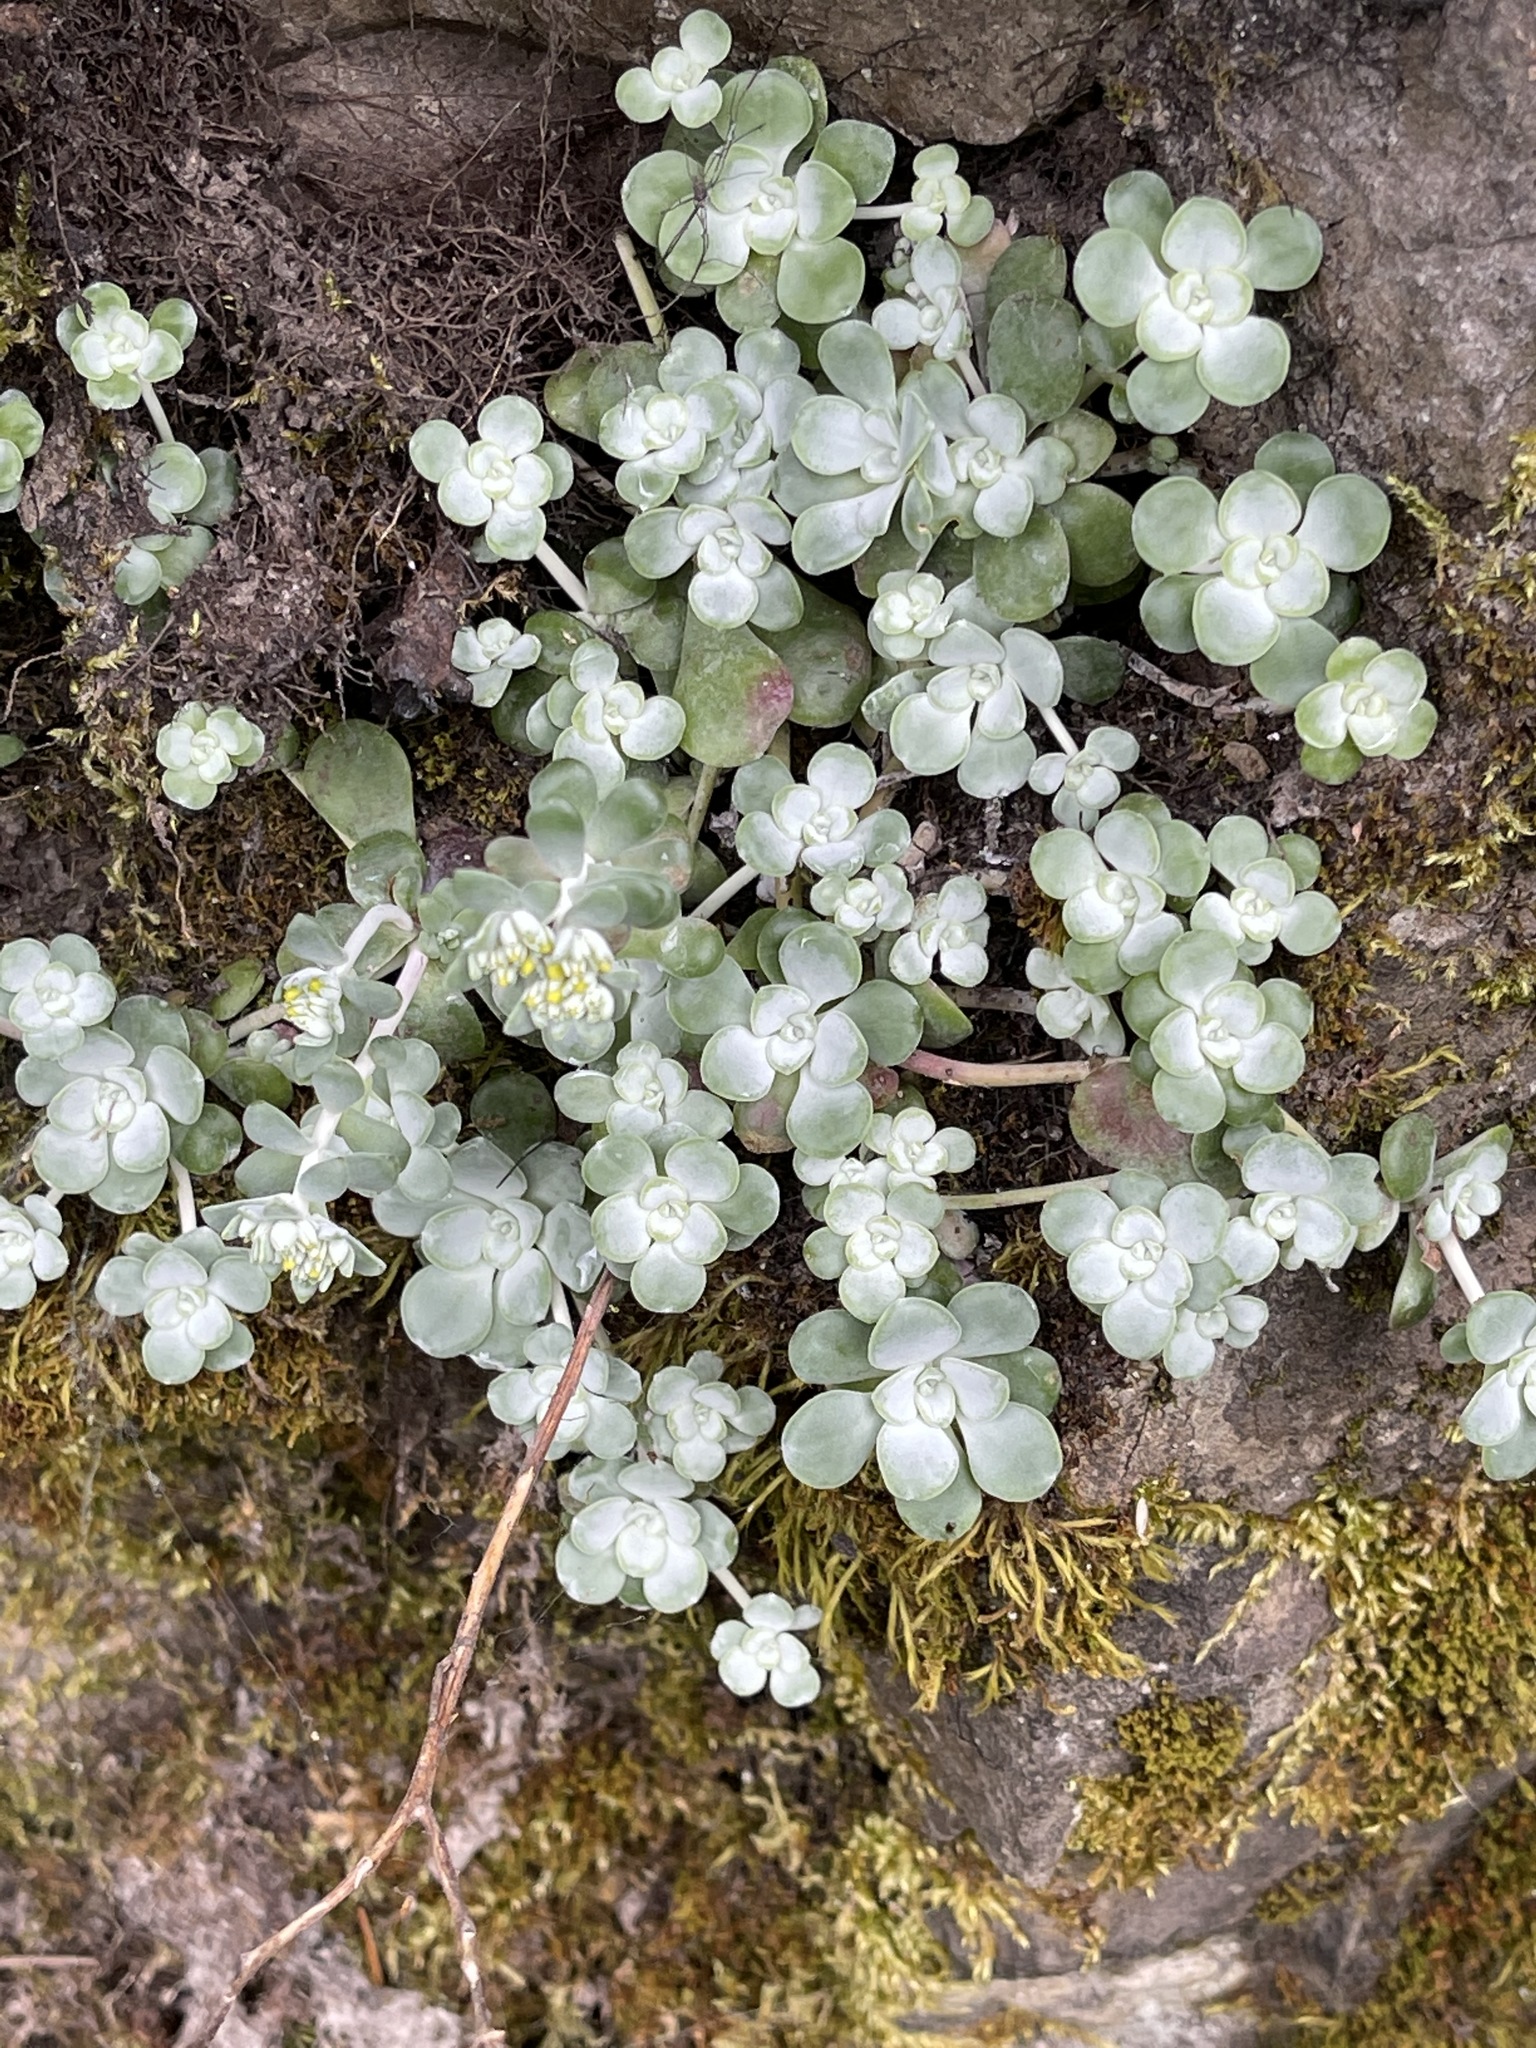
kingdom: Plantae
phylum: Tracheophyta
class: Magnoliopsida
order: Saxifragales
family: Crassulaceae
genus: Sedum
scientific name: Sedum spathulifolium
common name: Colorado stonecrop
